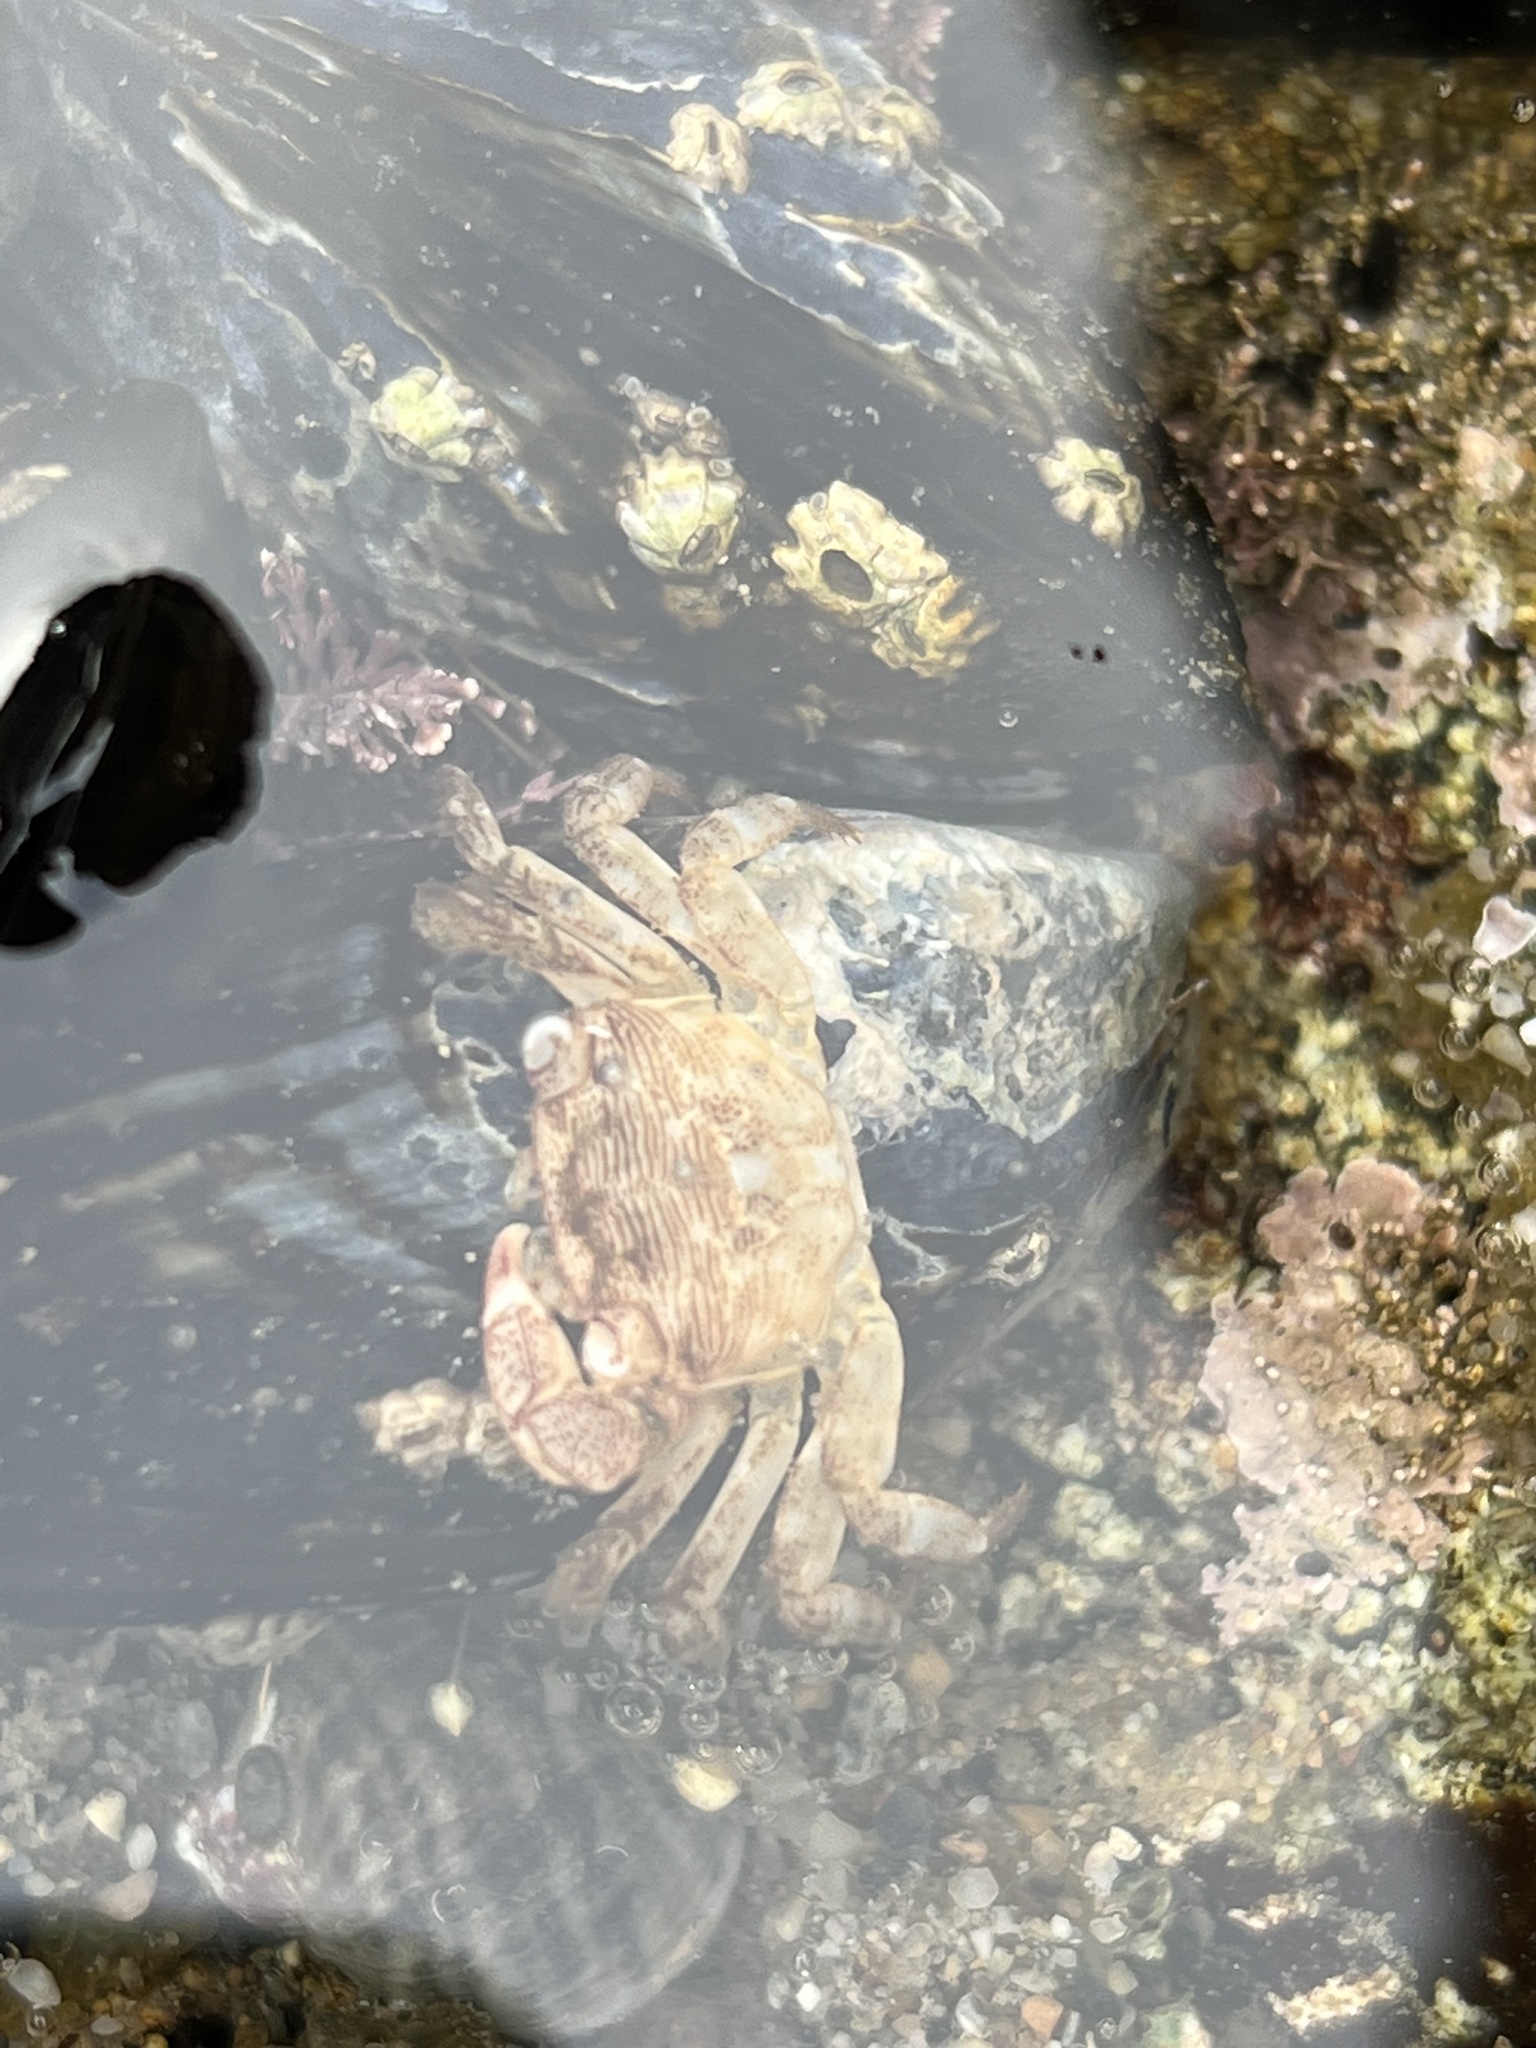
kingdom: Animalia
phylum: Arthropoda
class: Malacostraca
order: Decapoda
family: Grapsidae
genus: Pachygrapsus
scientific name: Pachygrapsus crassipes
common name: Striped shore crab
